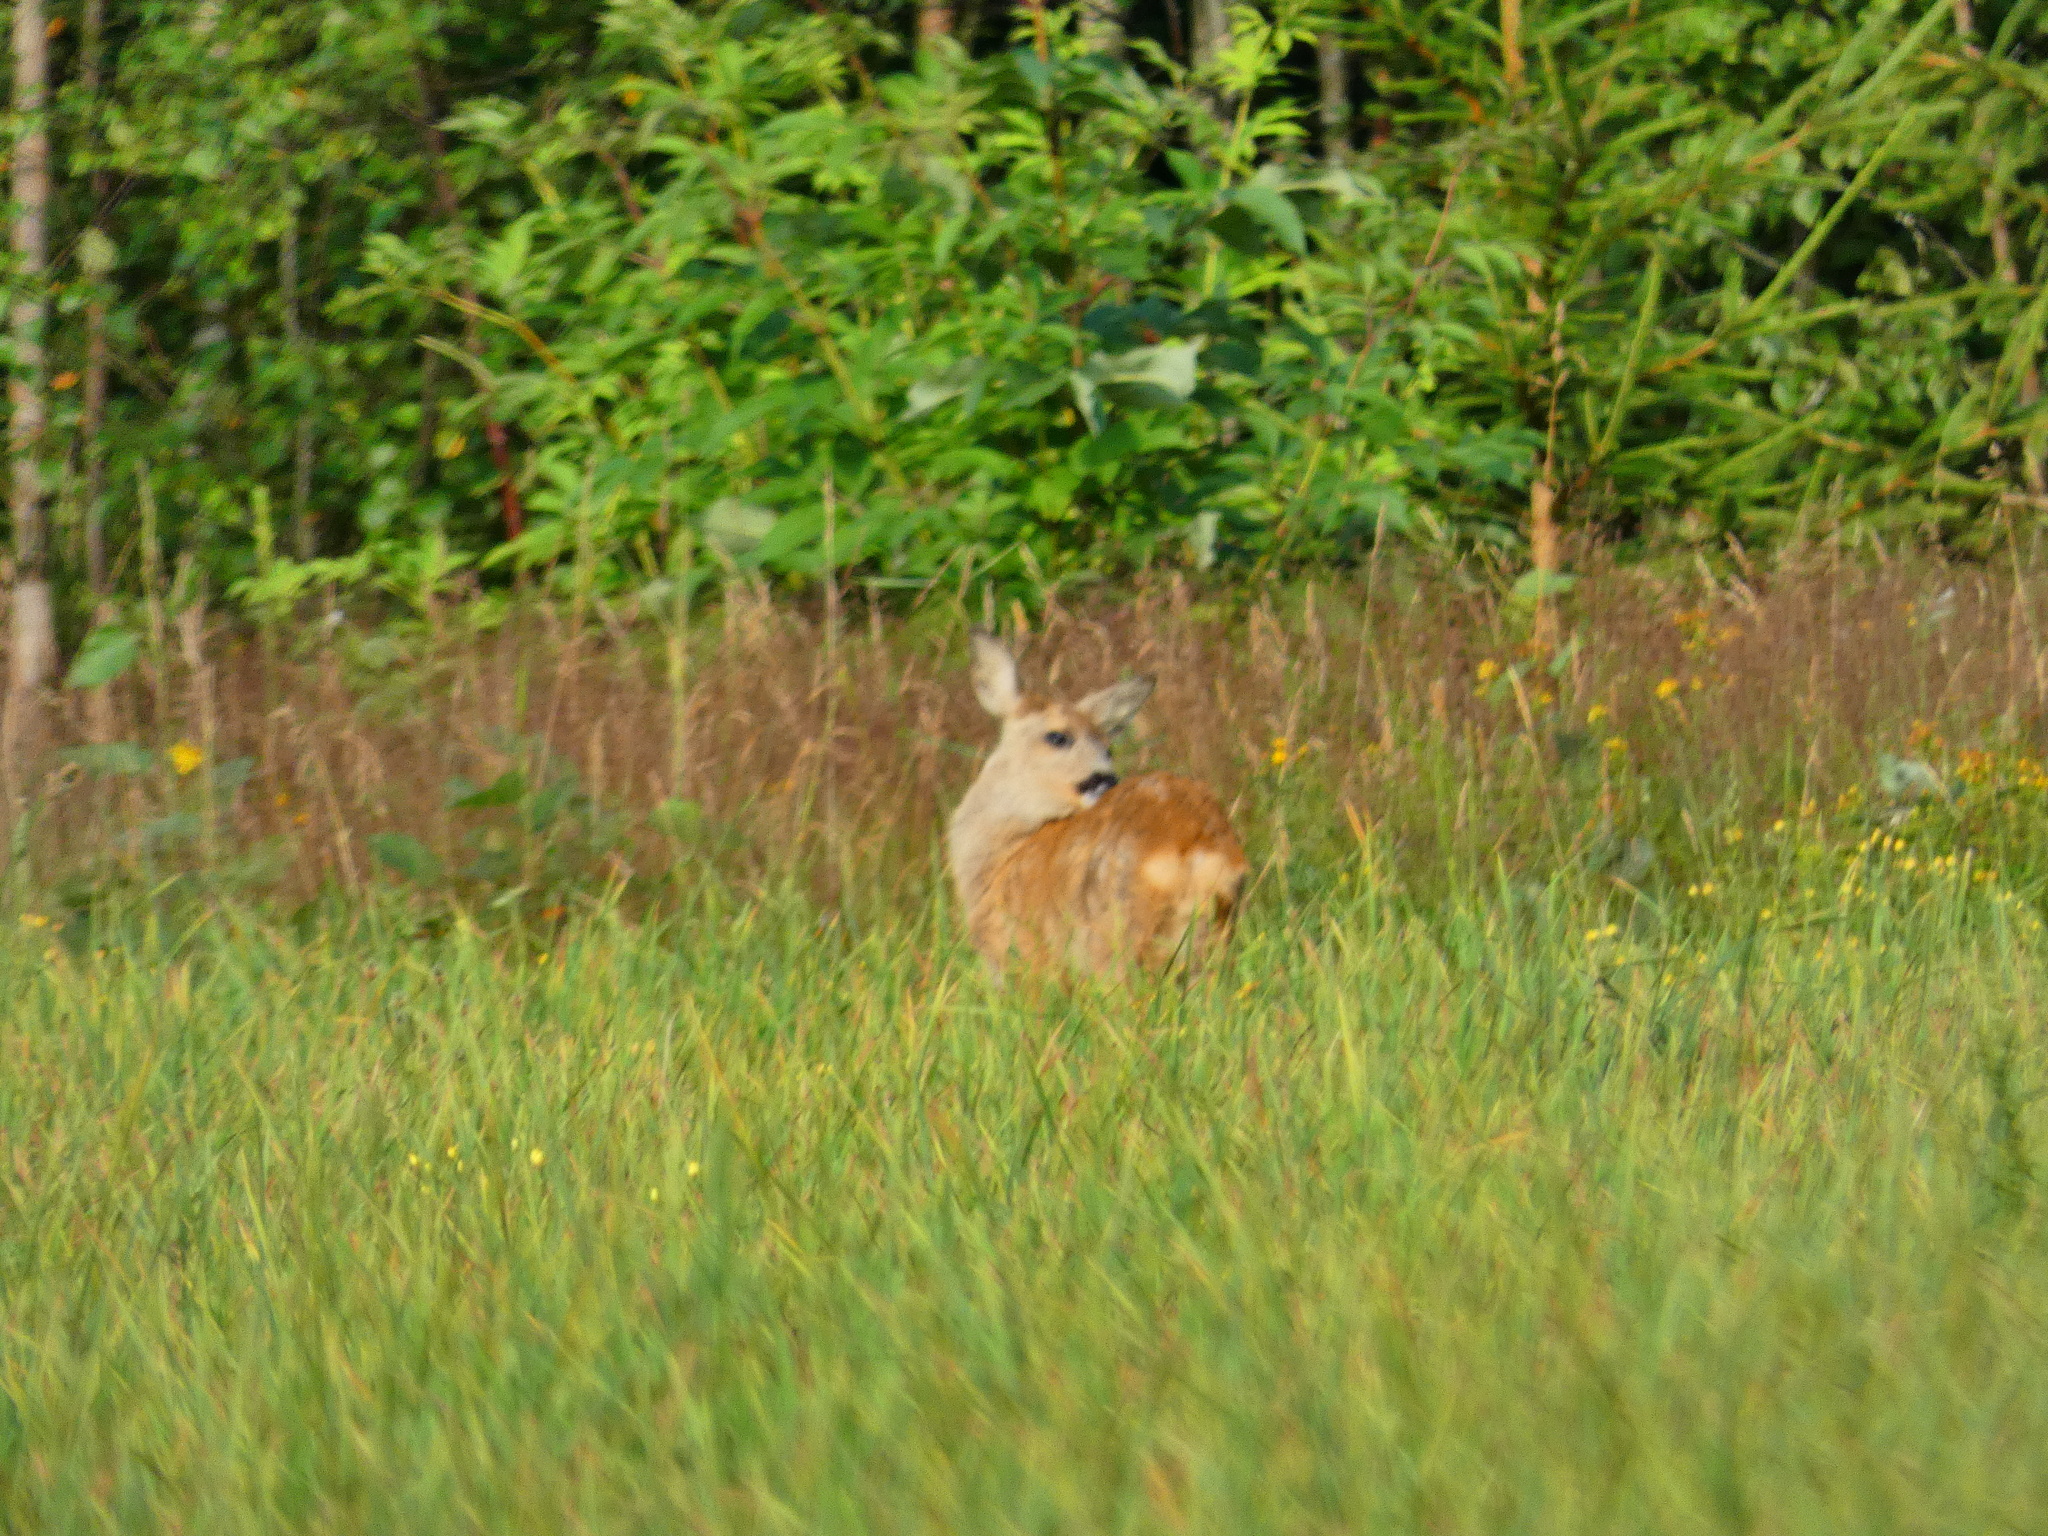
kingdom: Animalia
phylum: Chordata
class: Mammalia
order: Artiodactyla
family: Cervidae
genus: Capreolus
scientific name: Capreolus capreolus
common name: Western roe deer
